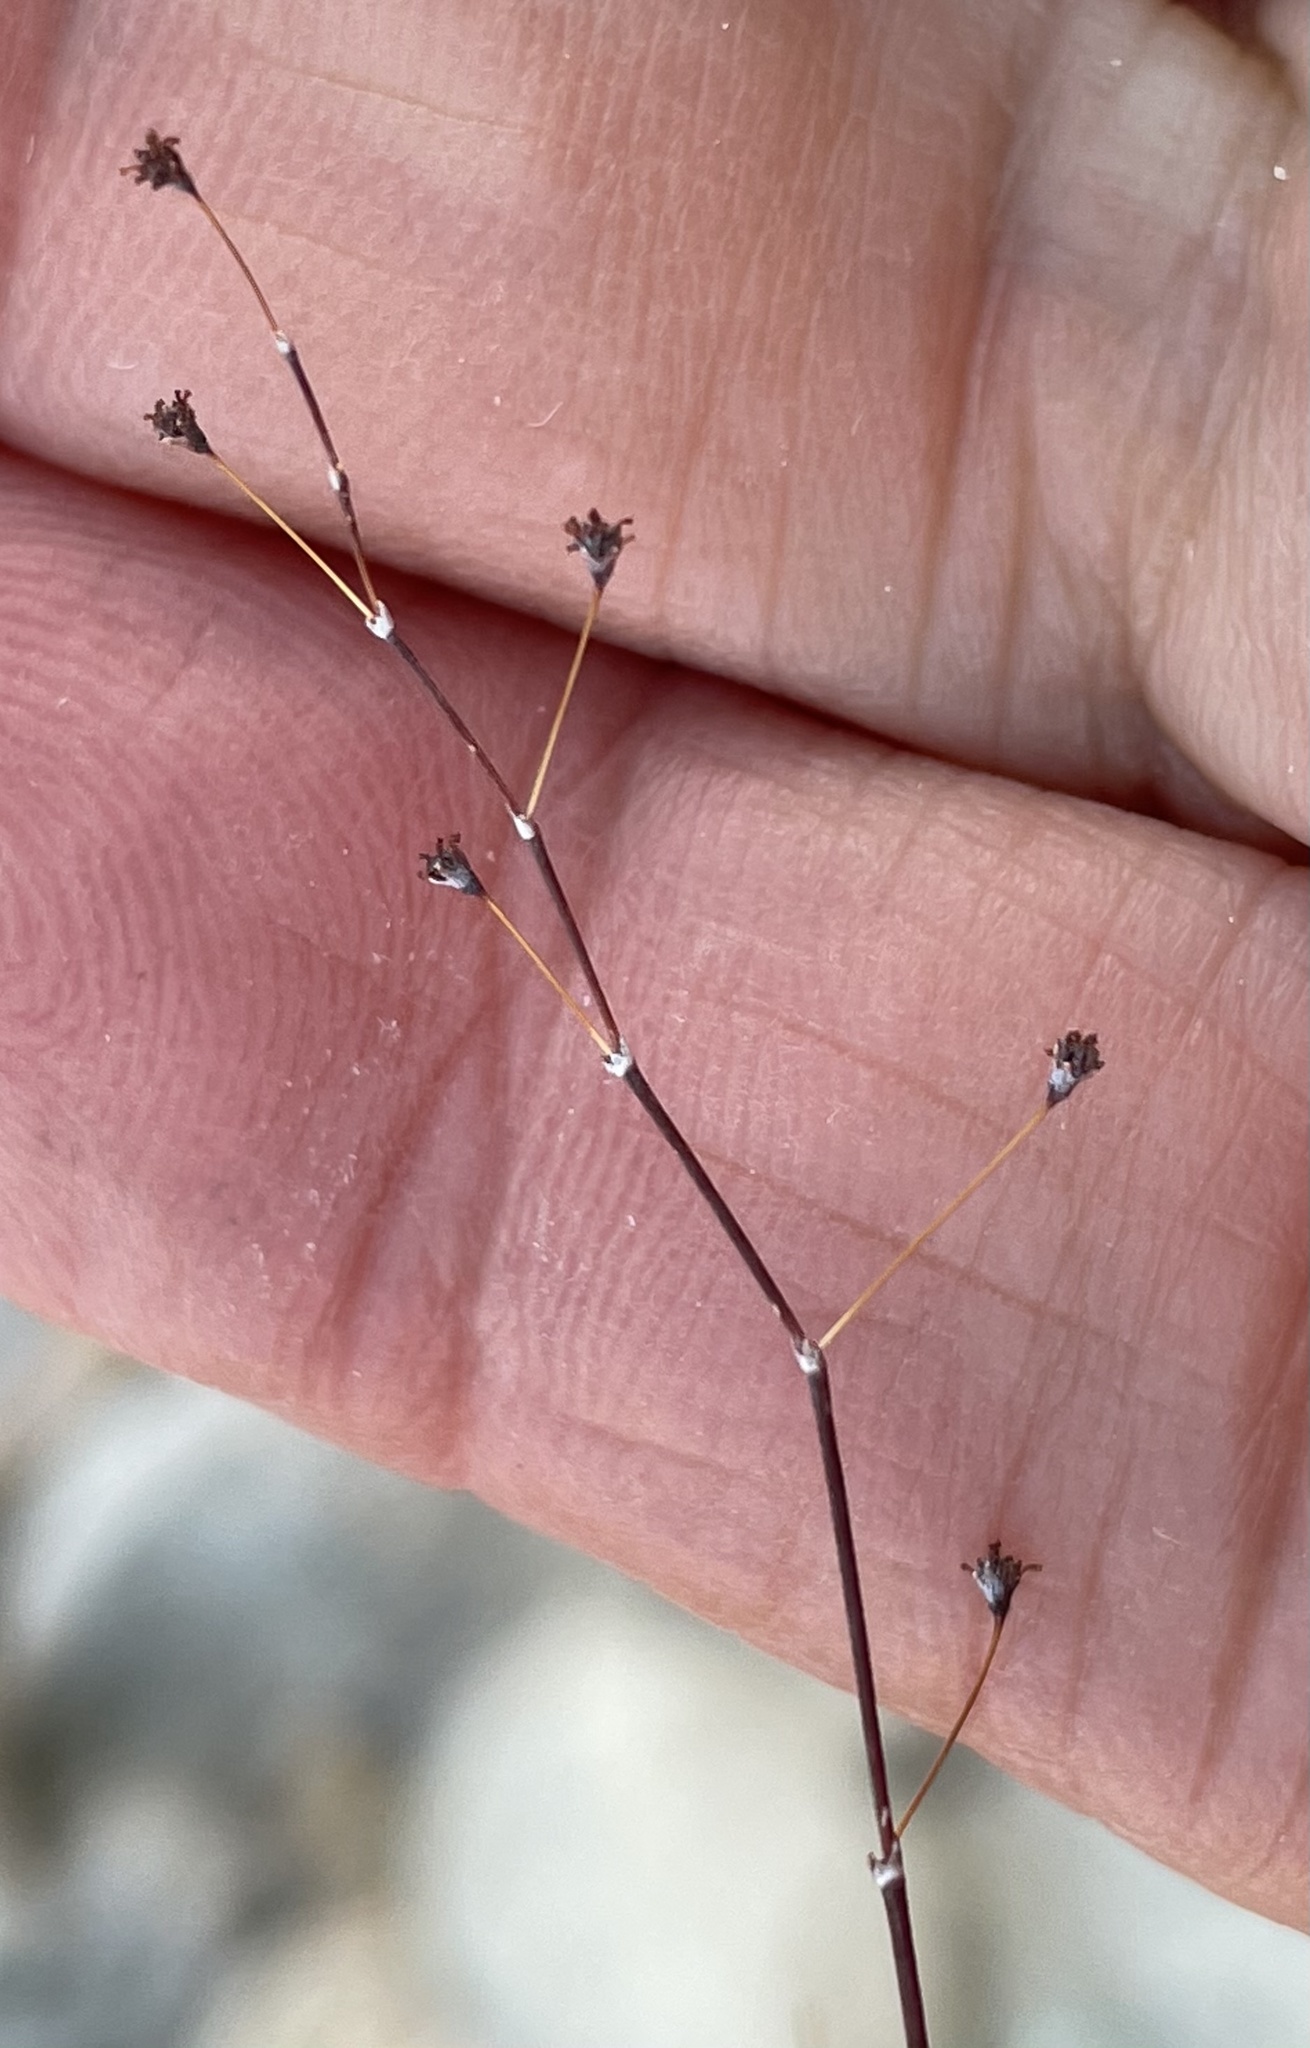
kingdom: Plantae
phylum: Tracheophyta
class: Magnoliopsida
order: Caryophyllales
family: Polygonaceae
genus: Eriogonum
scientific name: Eriogonum inflatum
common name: Desert trumpet
